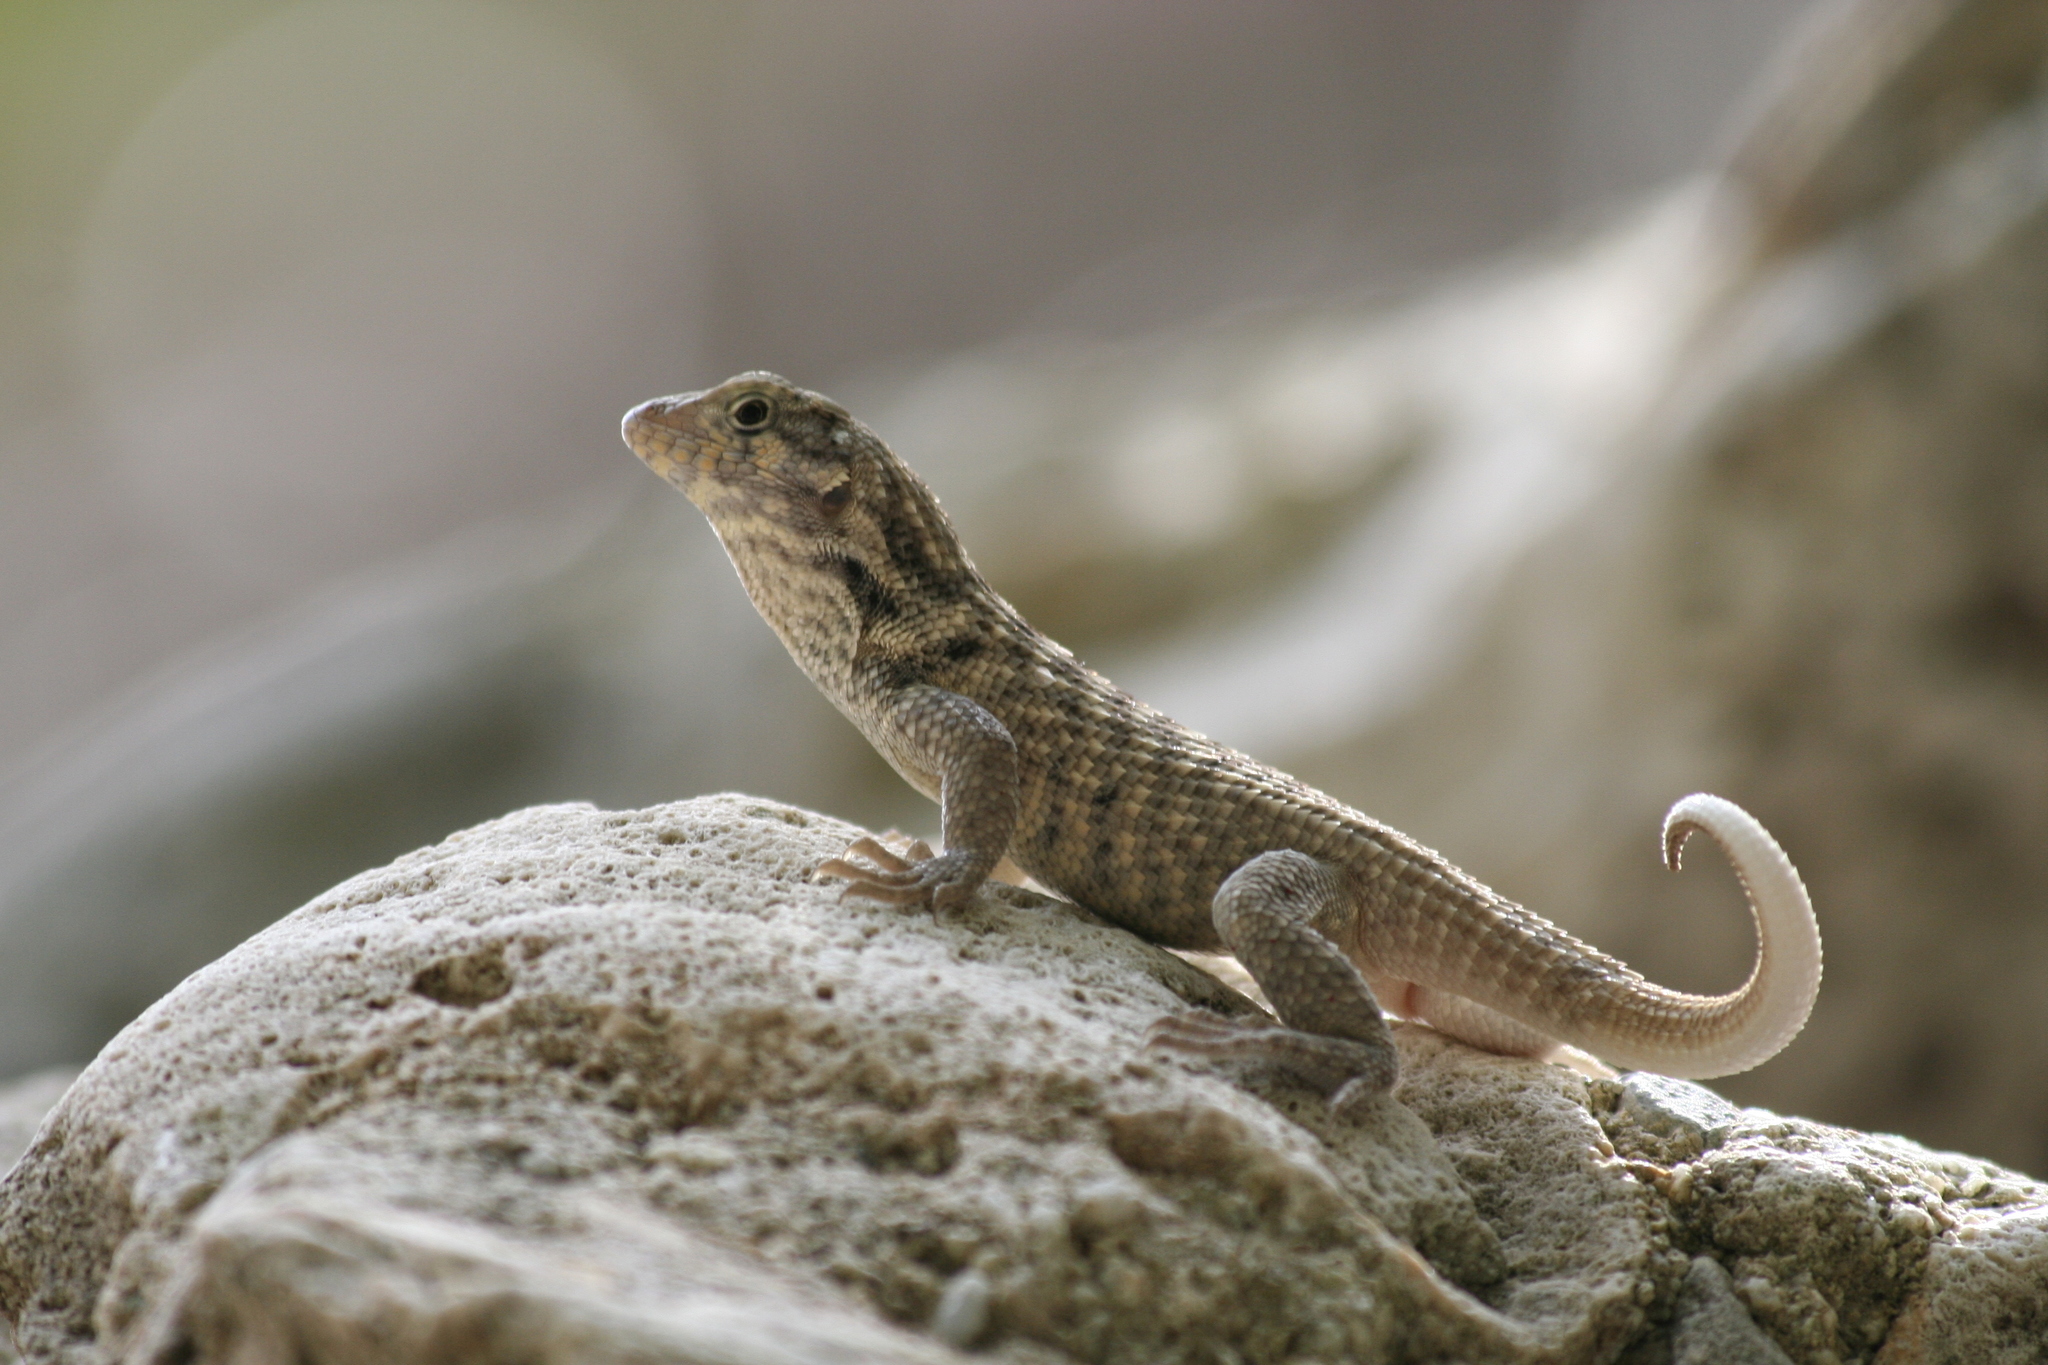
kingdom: Animalia
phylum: Chordata
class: Squamata
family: Leiocephalidae
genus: Leiocephalus
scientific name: Leiocephalus carinatus
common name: Northern curly-tailed lizard
